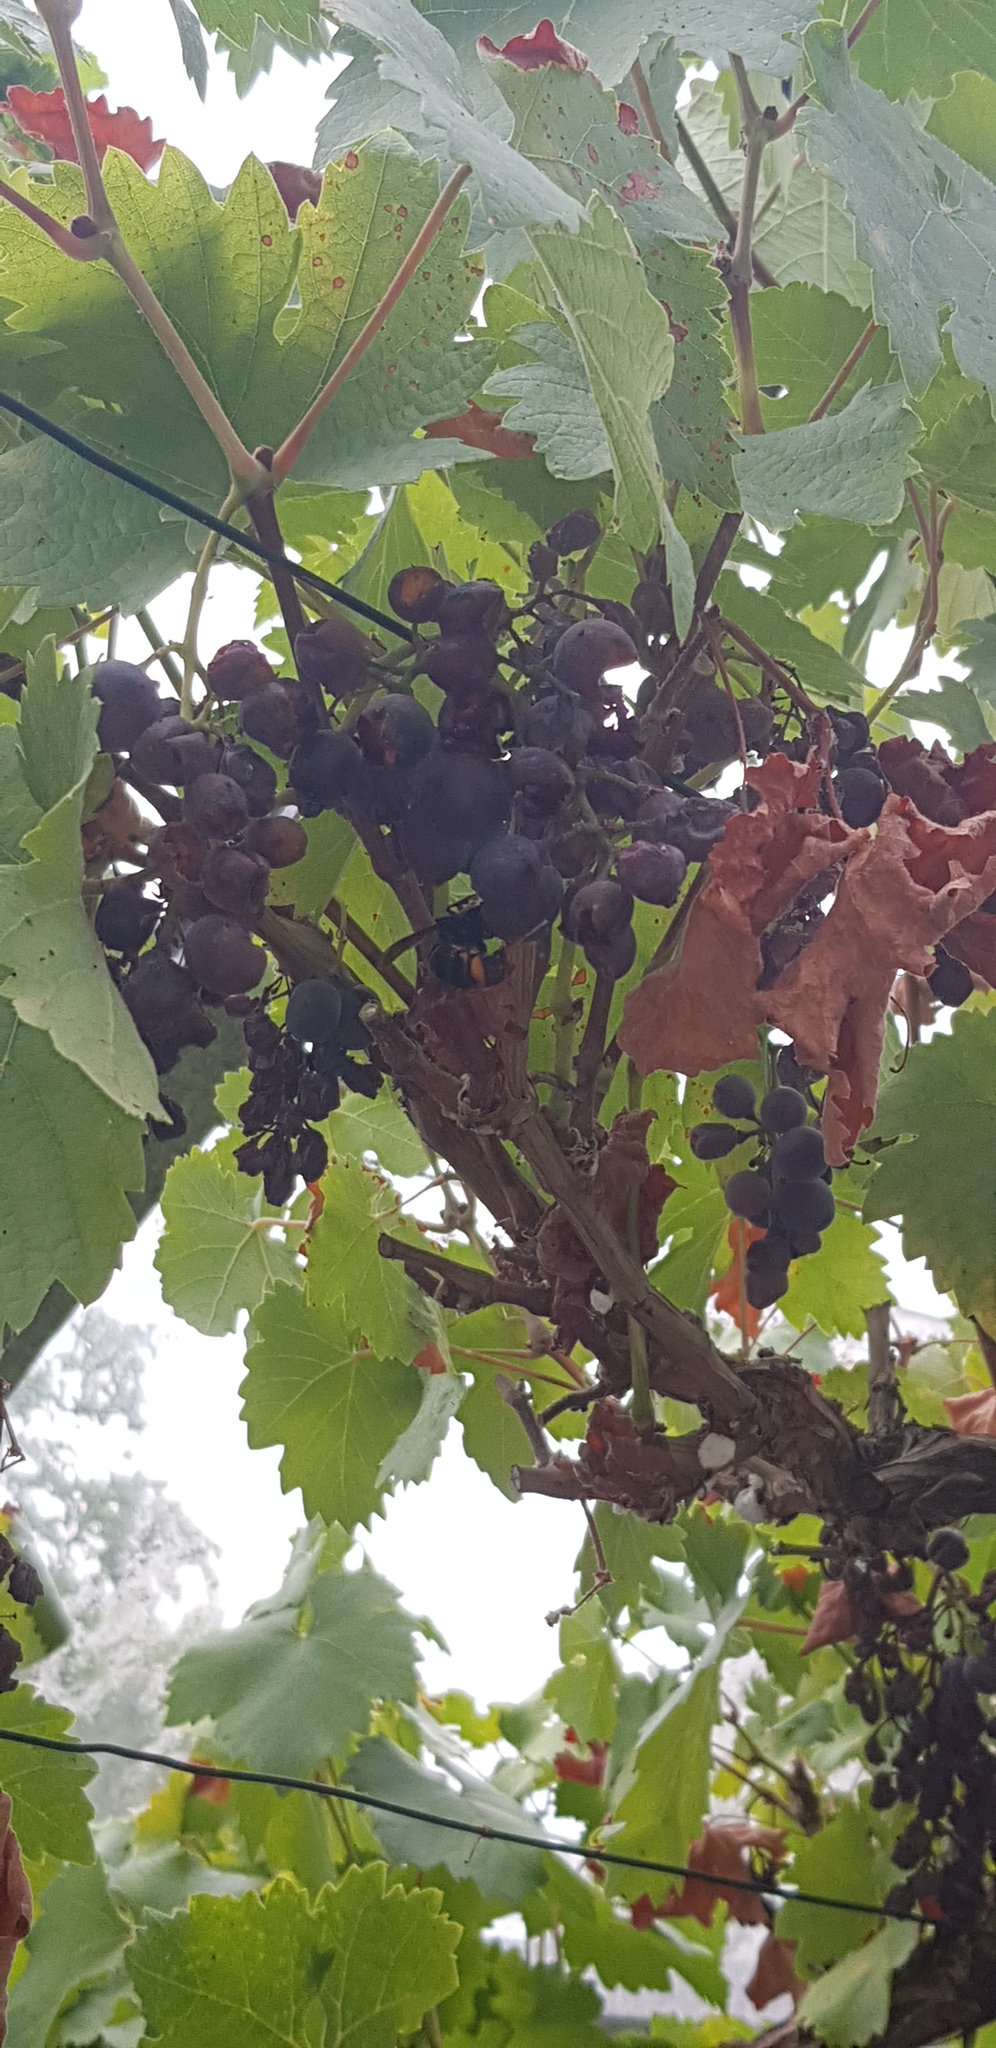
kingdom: Animalia
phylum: Arthropoda
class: Insecta
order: Hymenoptera
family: Vespidae
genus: Vespa
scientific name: Vespa velutina
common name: Asian hornet
